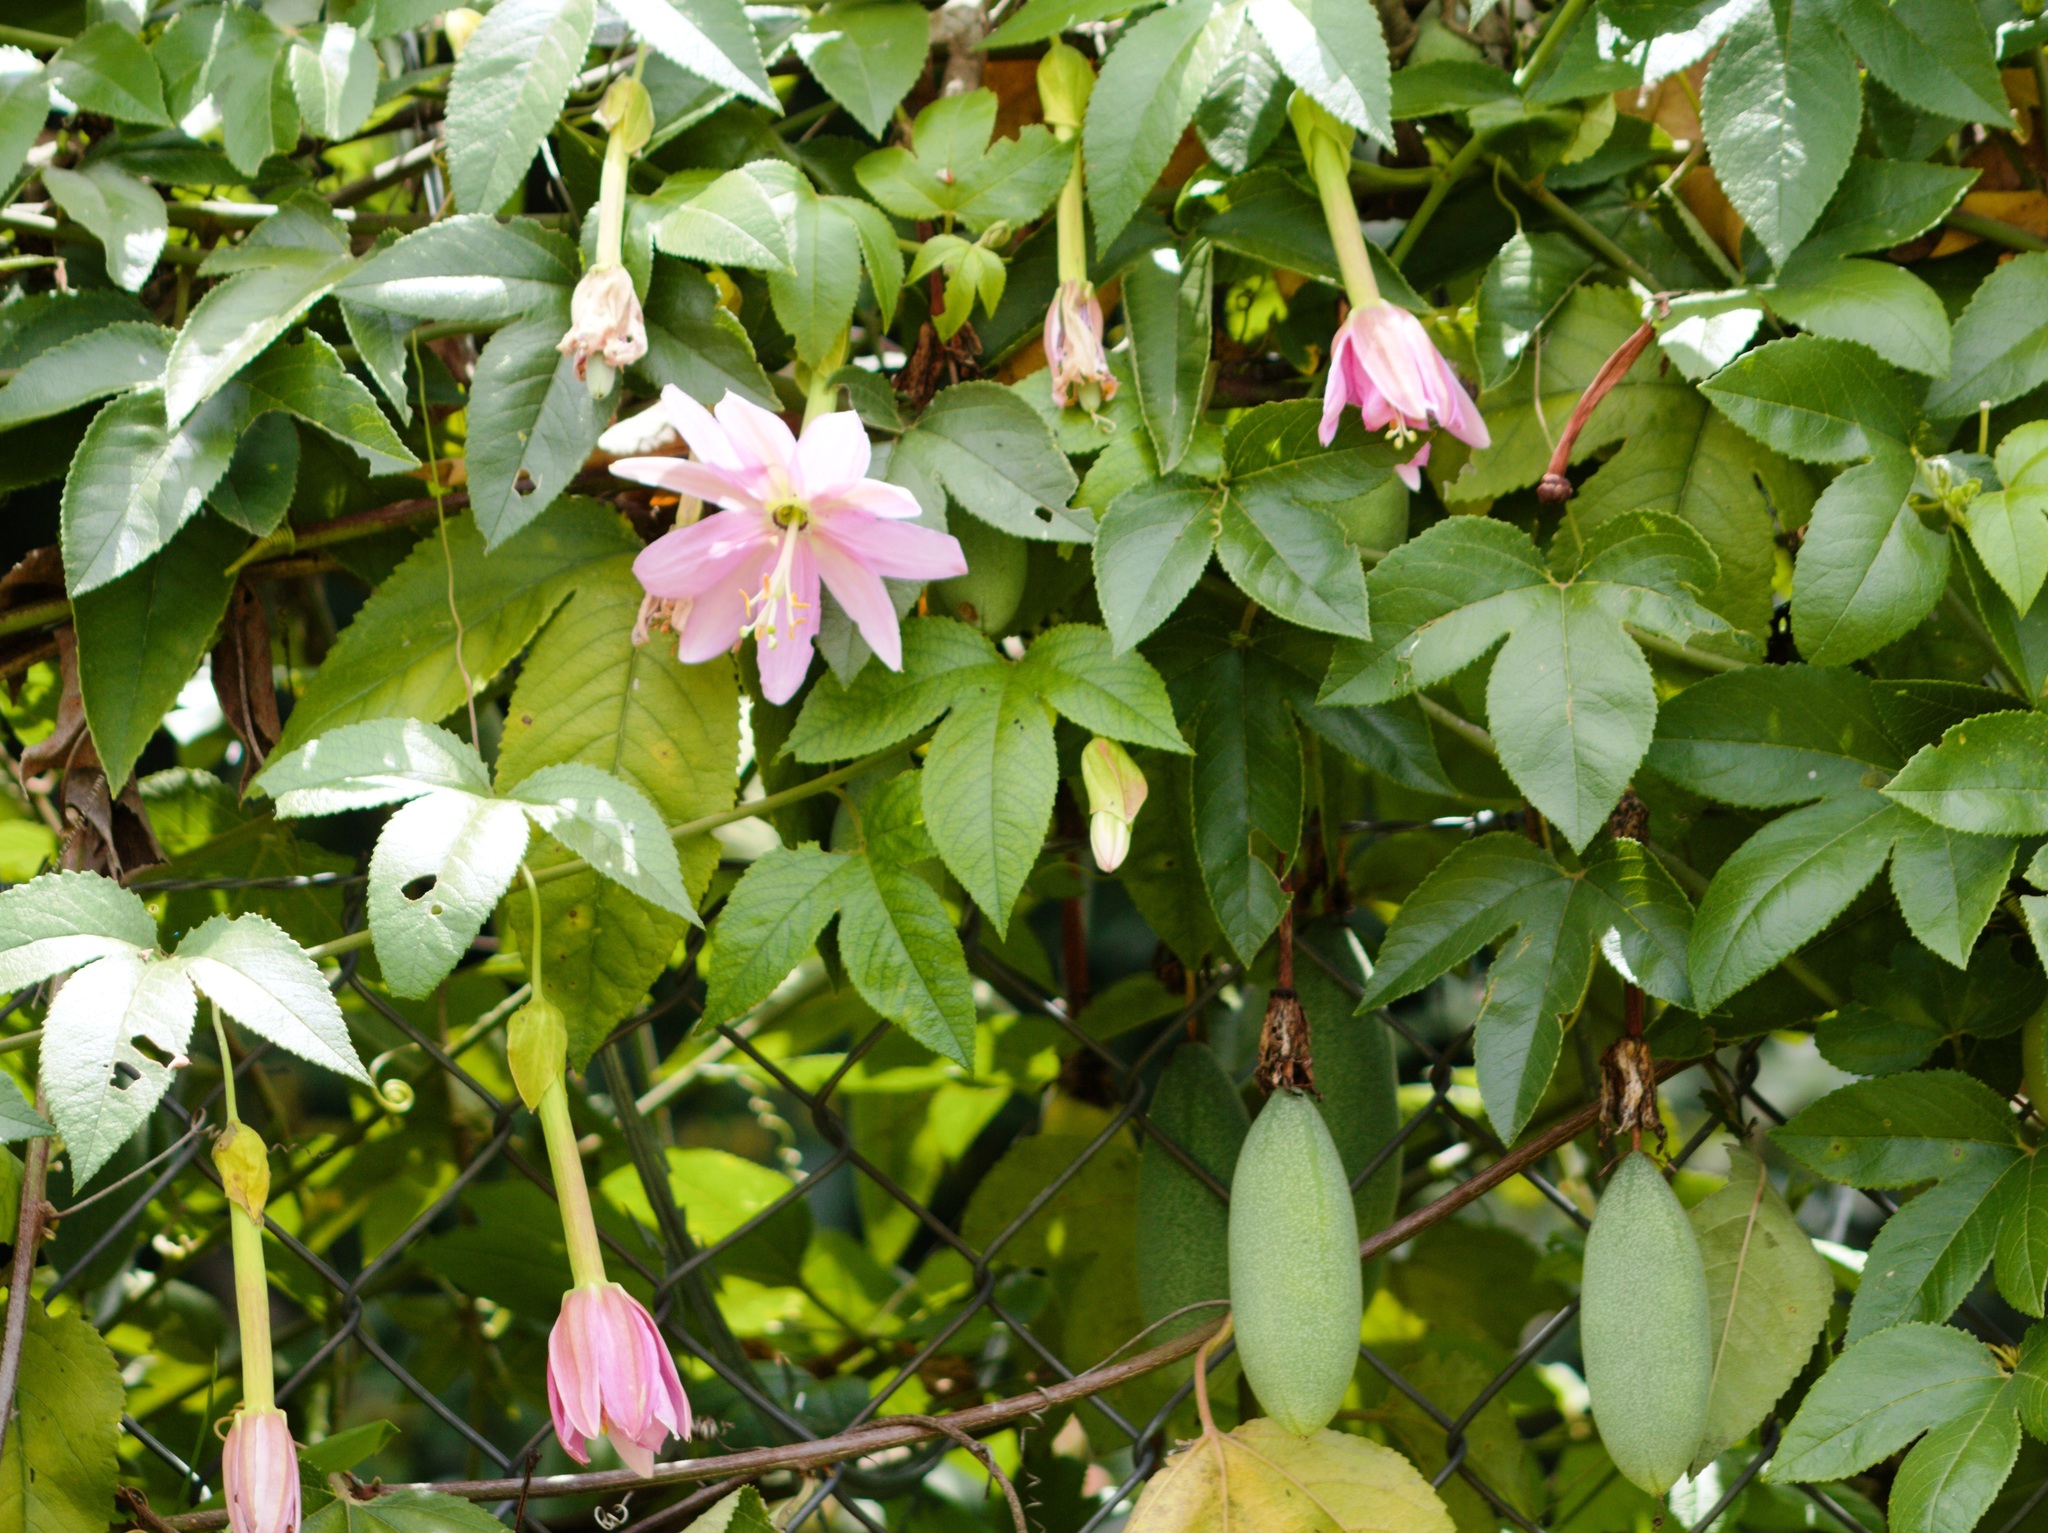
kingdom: Plantae
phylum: Tracheophyta
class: Magnoliopsida
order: Malpighiales
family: Passifloraceae
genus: Passiflora
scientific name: Passiflora tarminiana
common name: Banana poka
